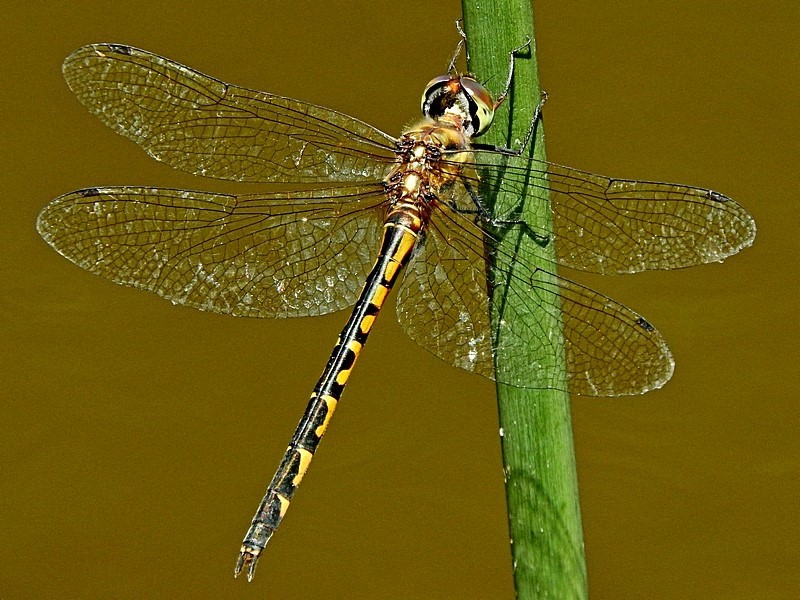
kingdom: Animalia
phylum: Arthropoda
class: Insecta
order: Odonata
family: Corduliidae
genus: Hemicordulia
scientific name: Hemicordulia australiae
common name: Sentry dragonfly
